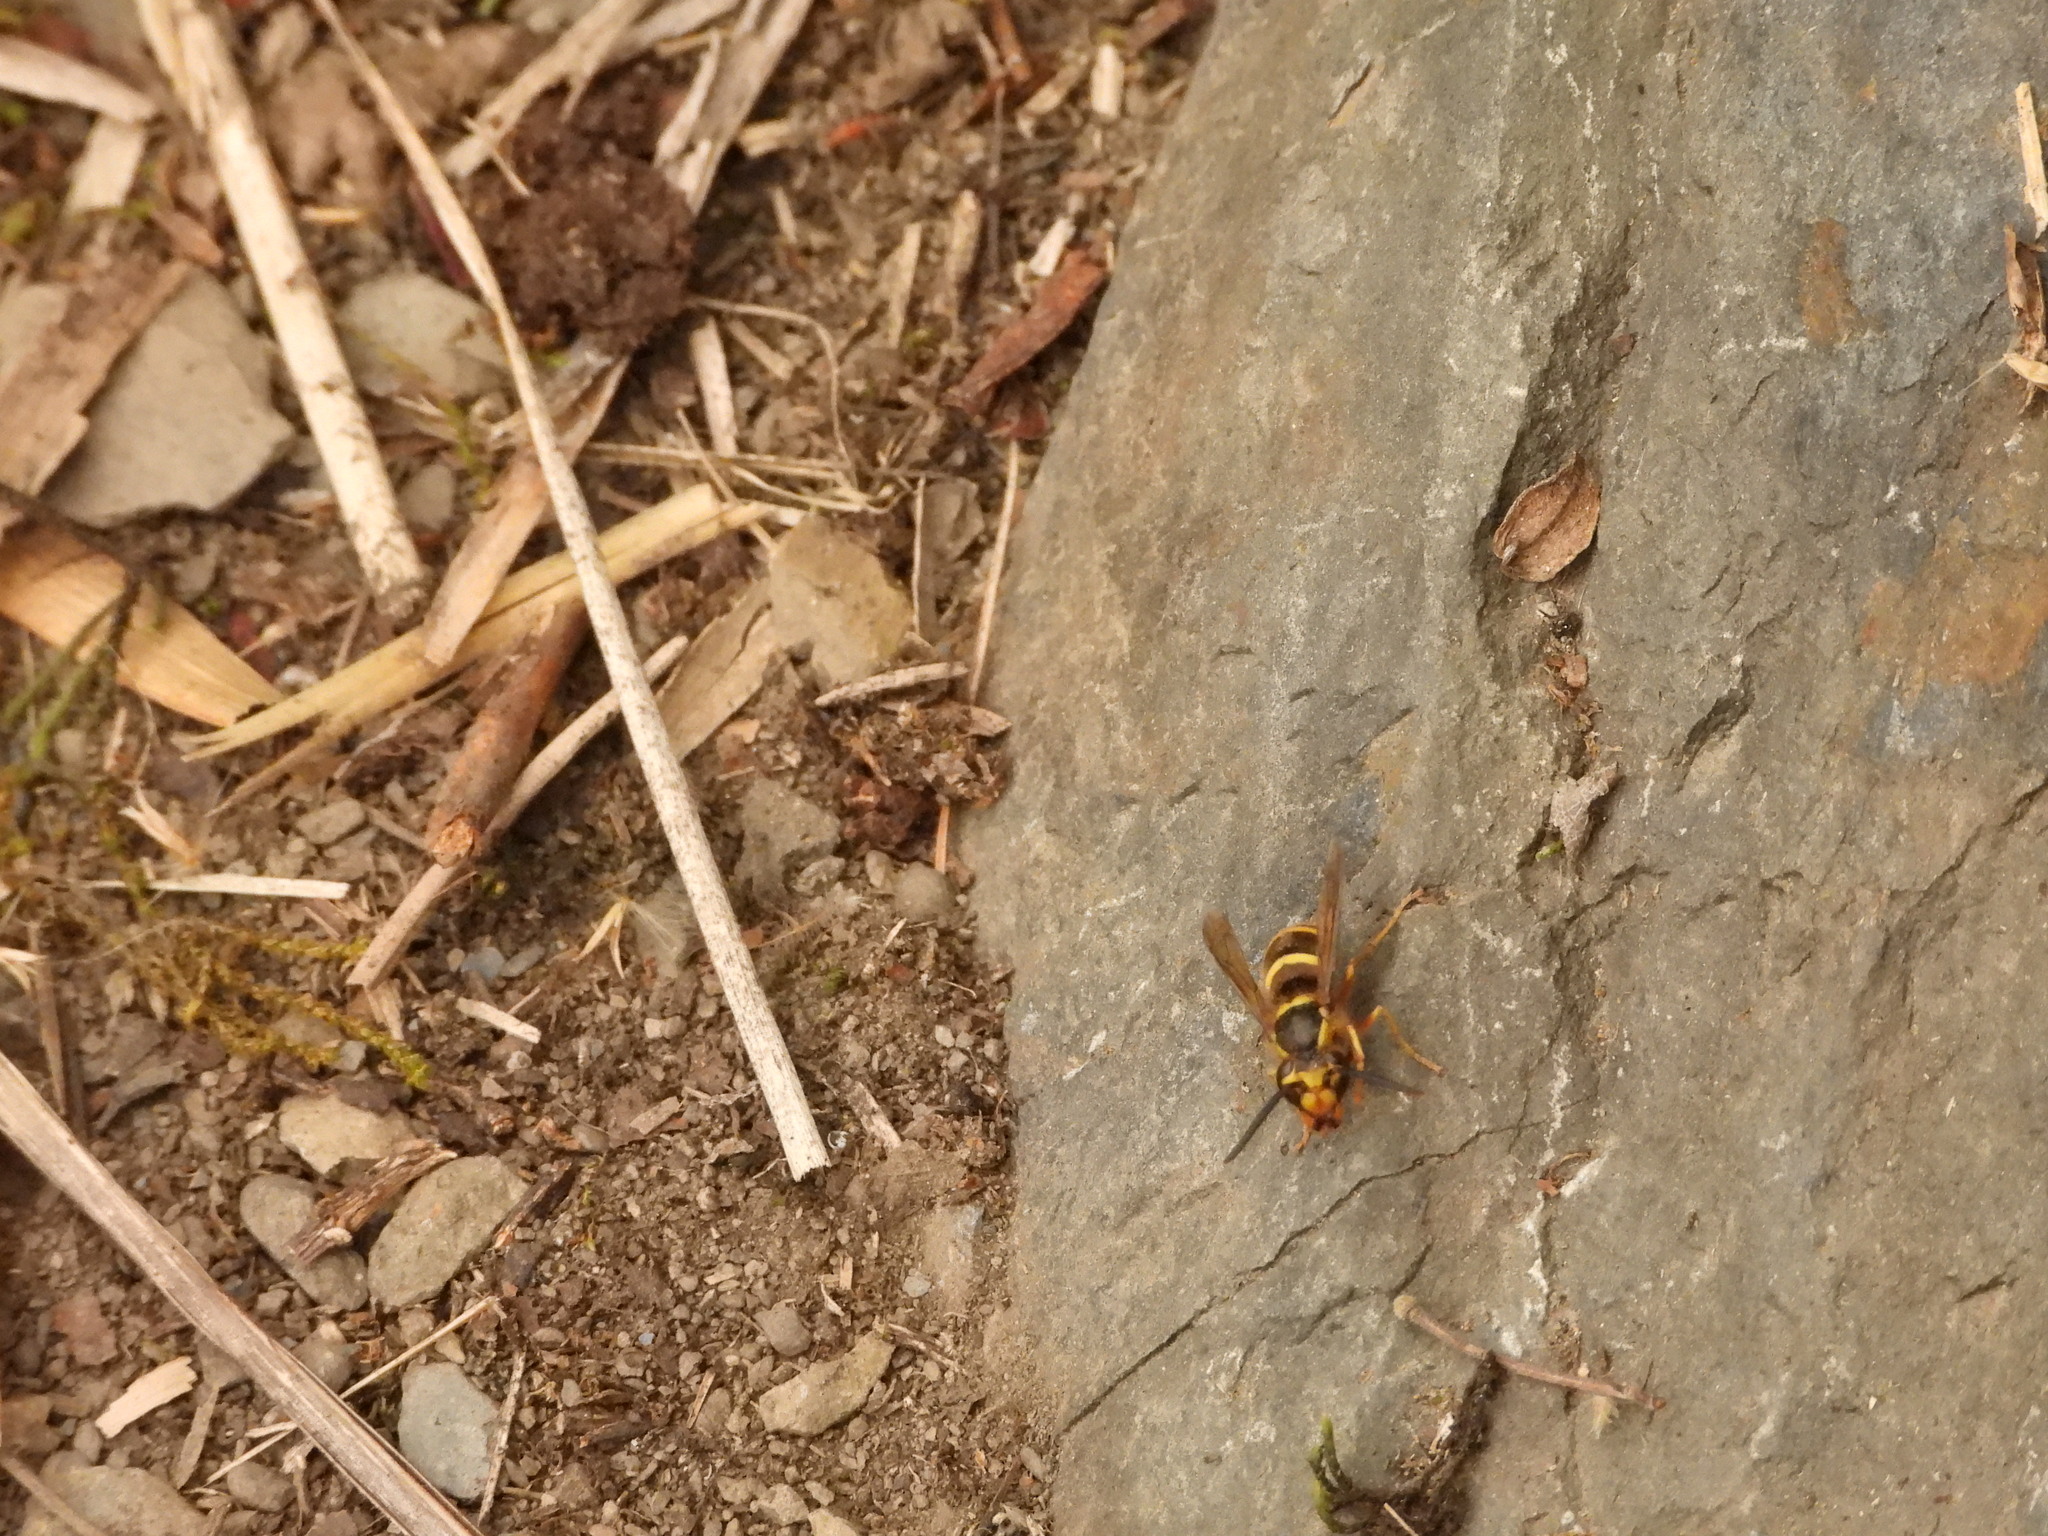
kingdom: Animalia
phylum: Arthropoda
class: Insecta
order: Hymenoptera
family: Vespidae
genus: Vespula
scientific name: Vespula arisana
